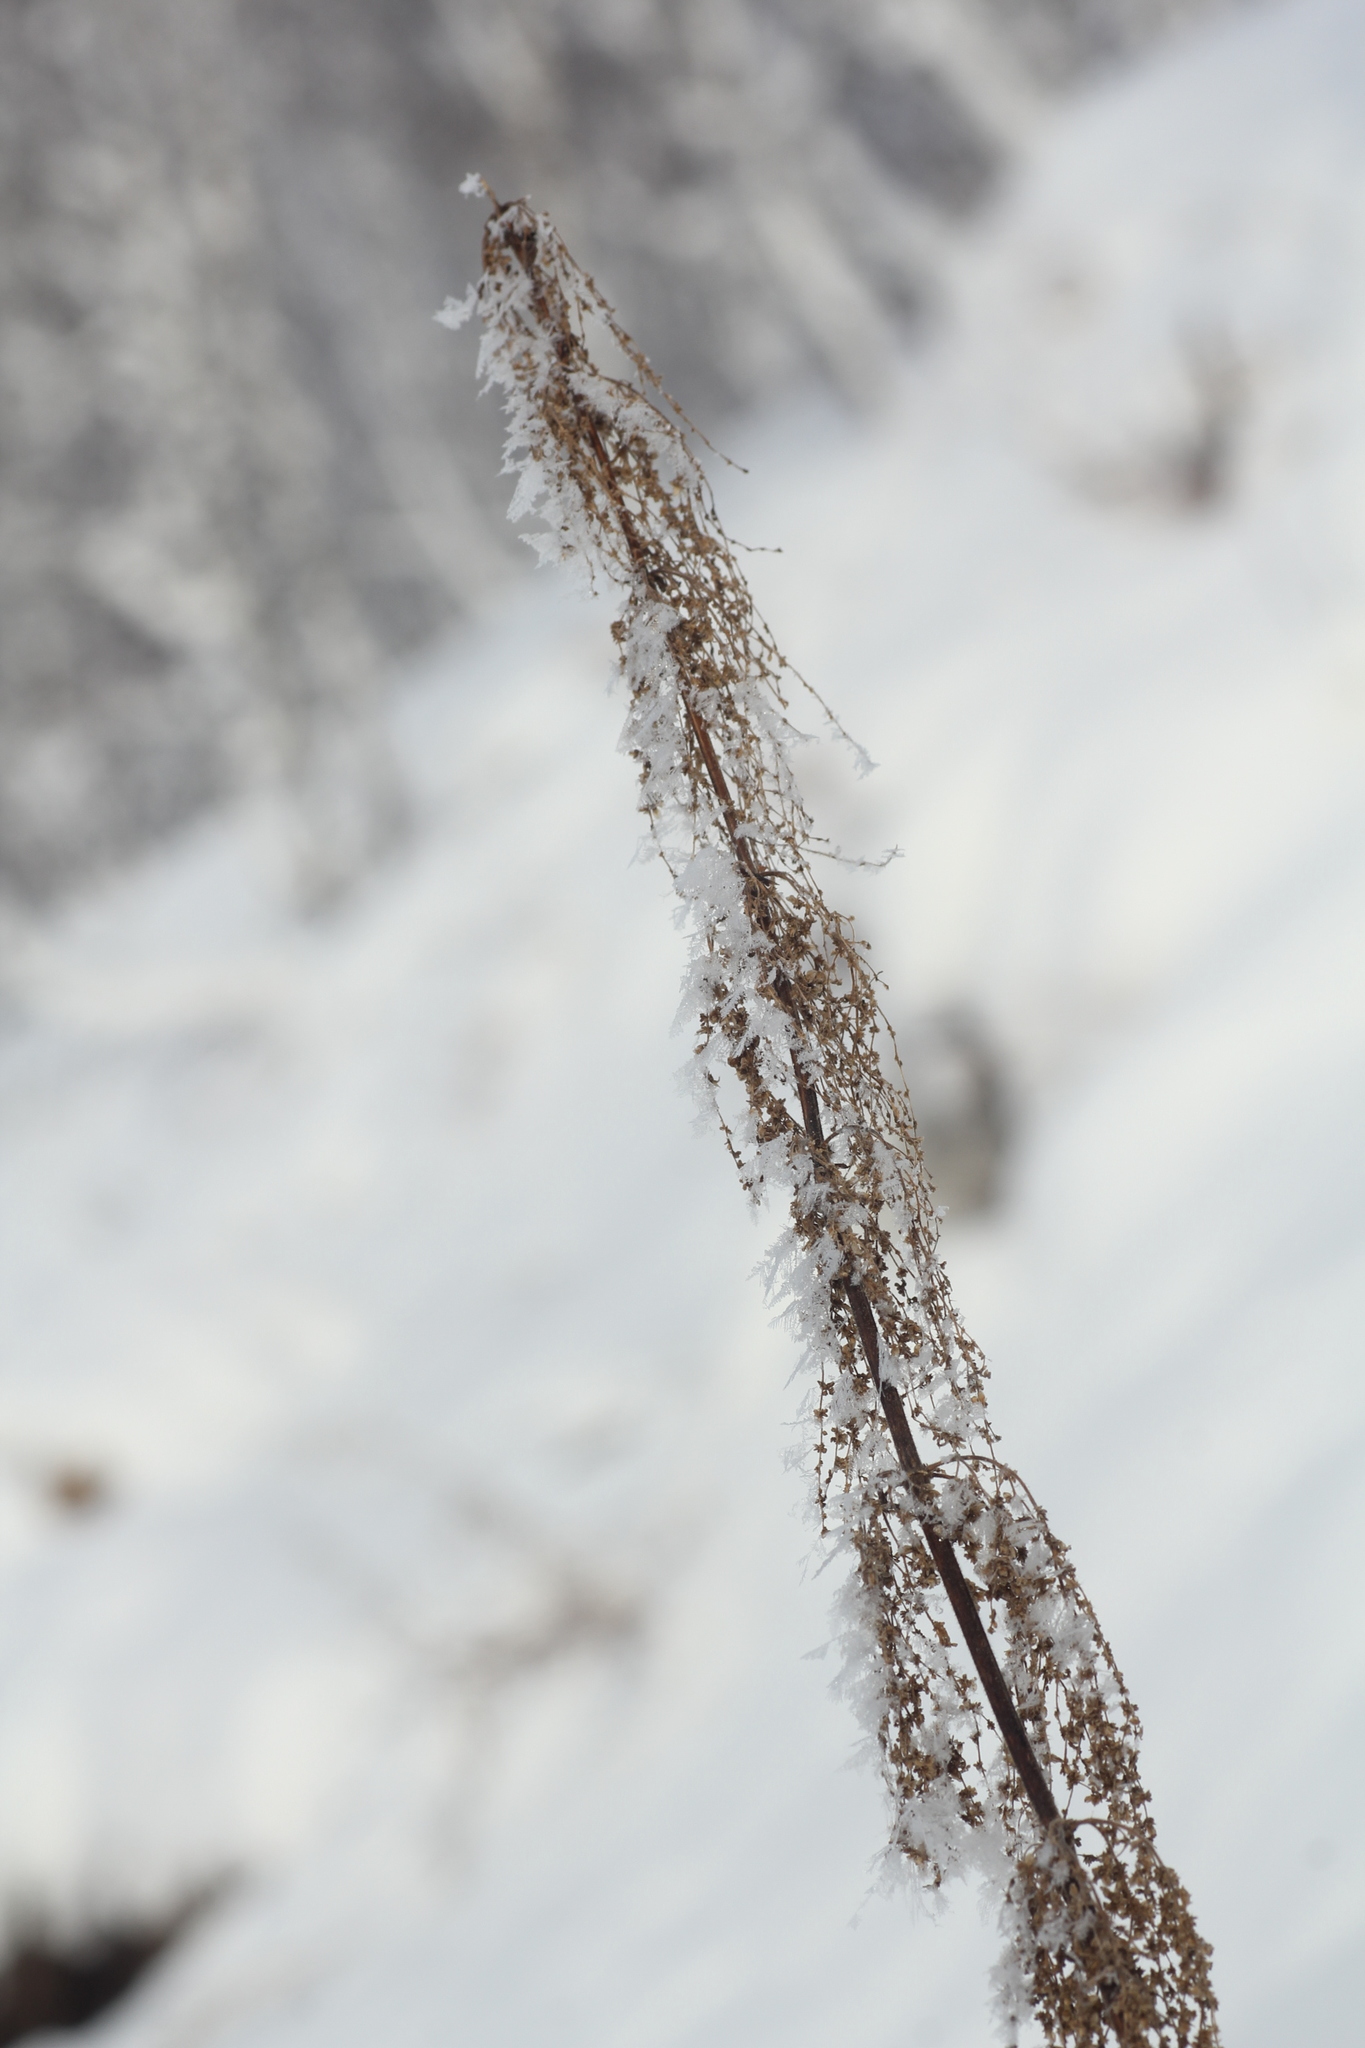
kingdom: Plantae
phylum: Tracheophyta
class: Magnoliopsida
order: Rosales
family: Urticaceae
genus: Urtica
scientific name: Urtica dioica
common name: Common nettle
